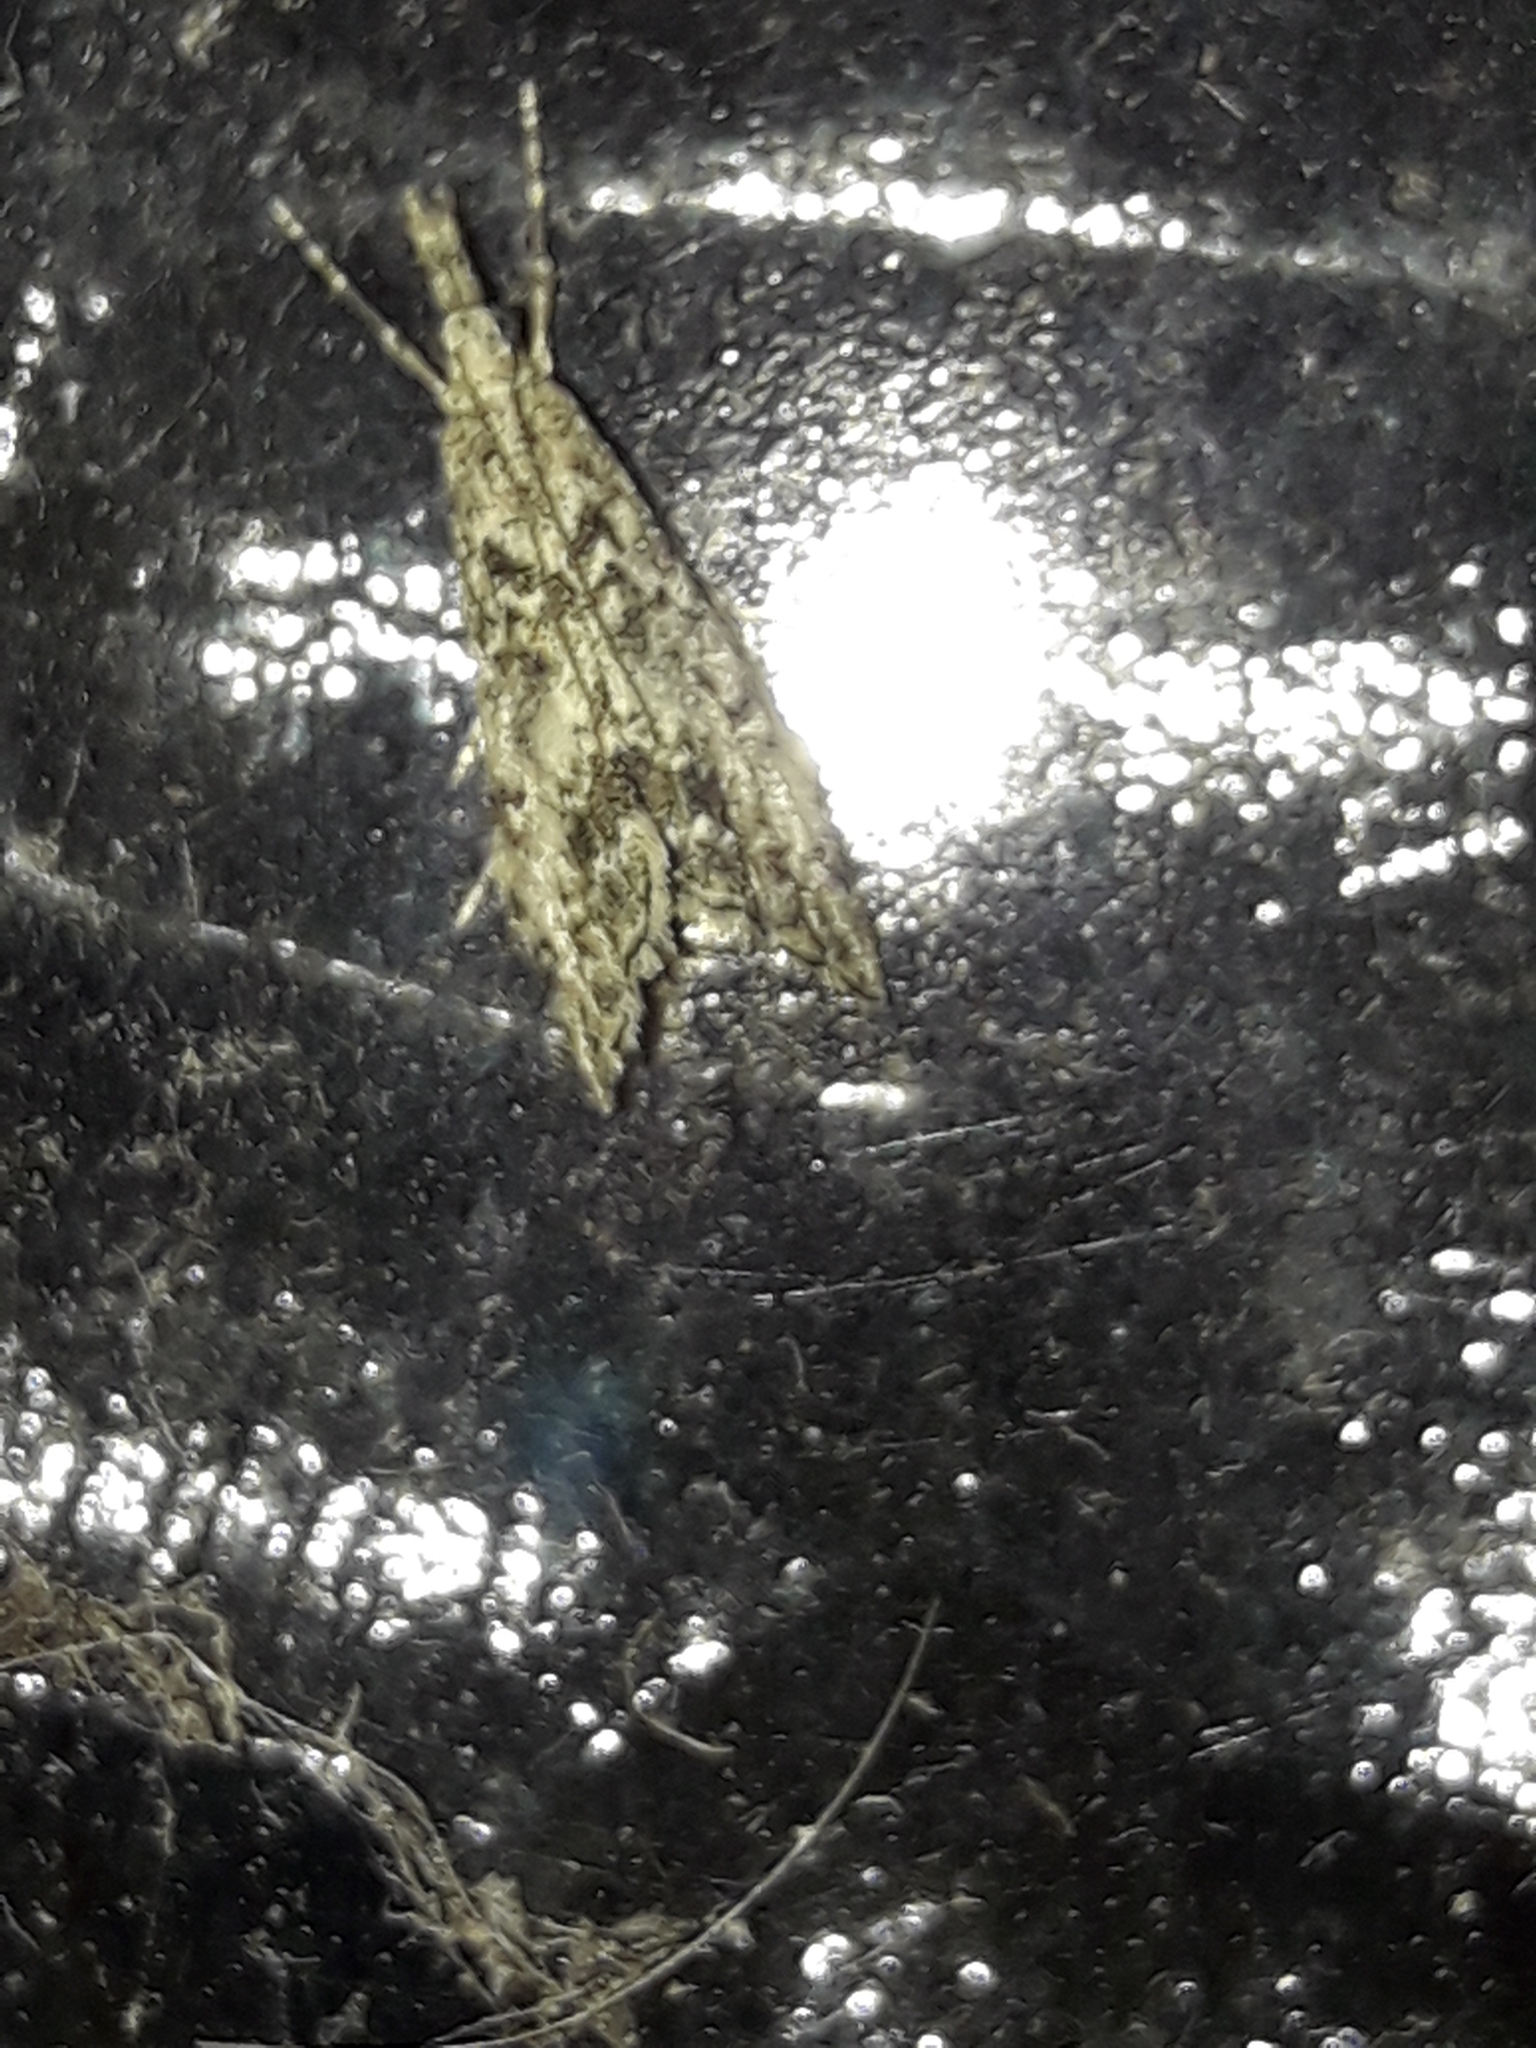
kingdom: Animalia
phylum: Arthropoda
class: Insecta
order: Lepidoptera
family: Crambidae
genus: Glaucocharis
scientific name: Glaucocharis elaina
